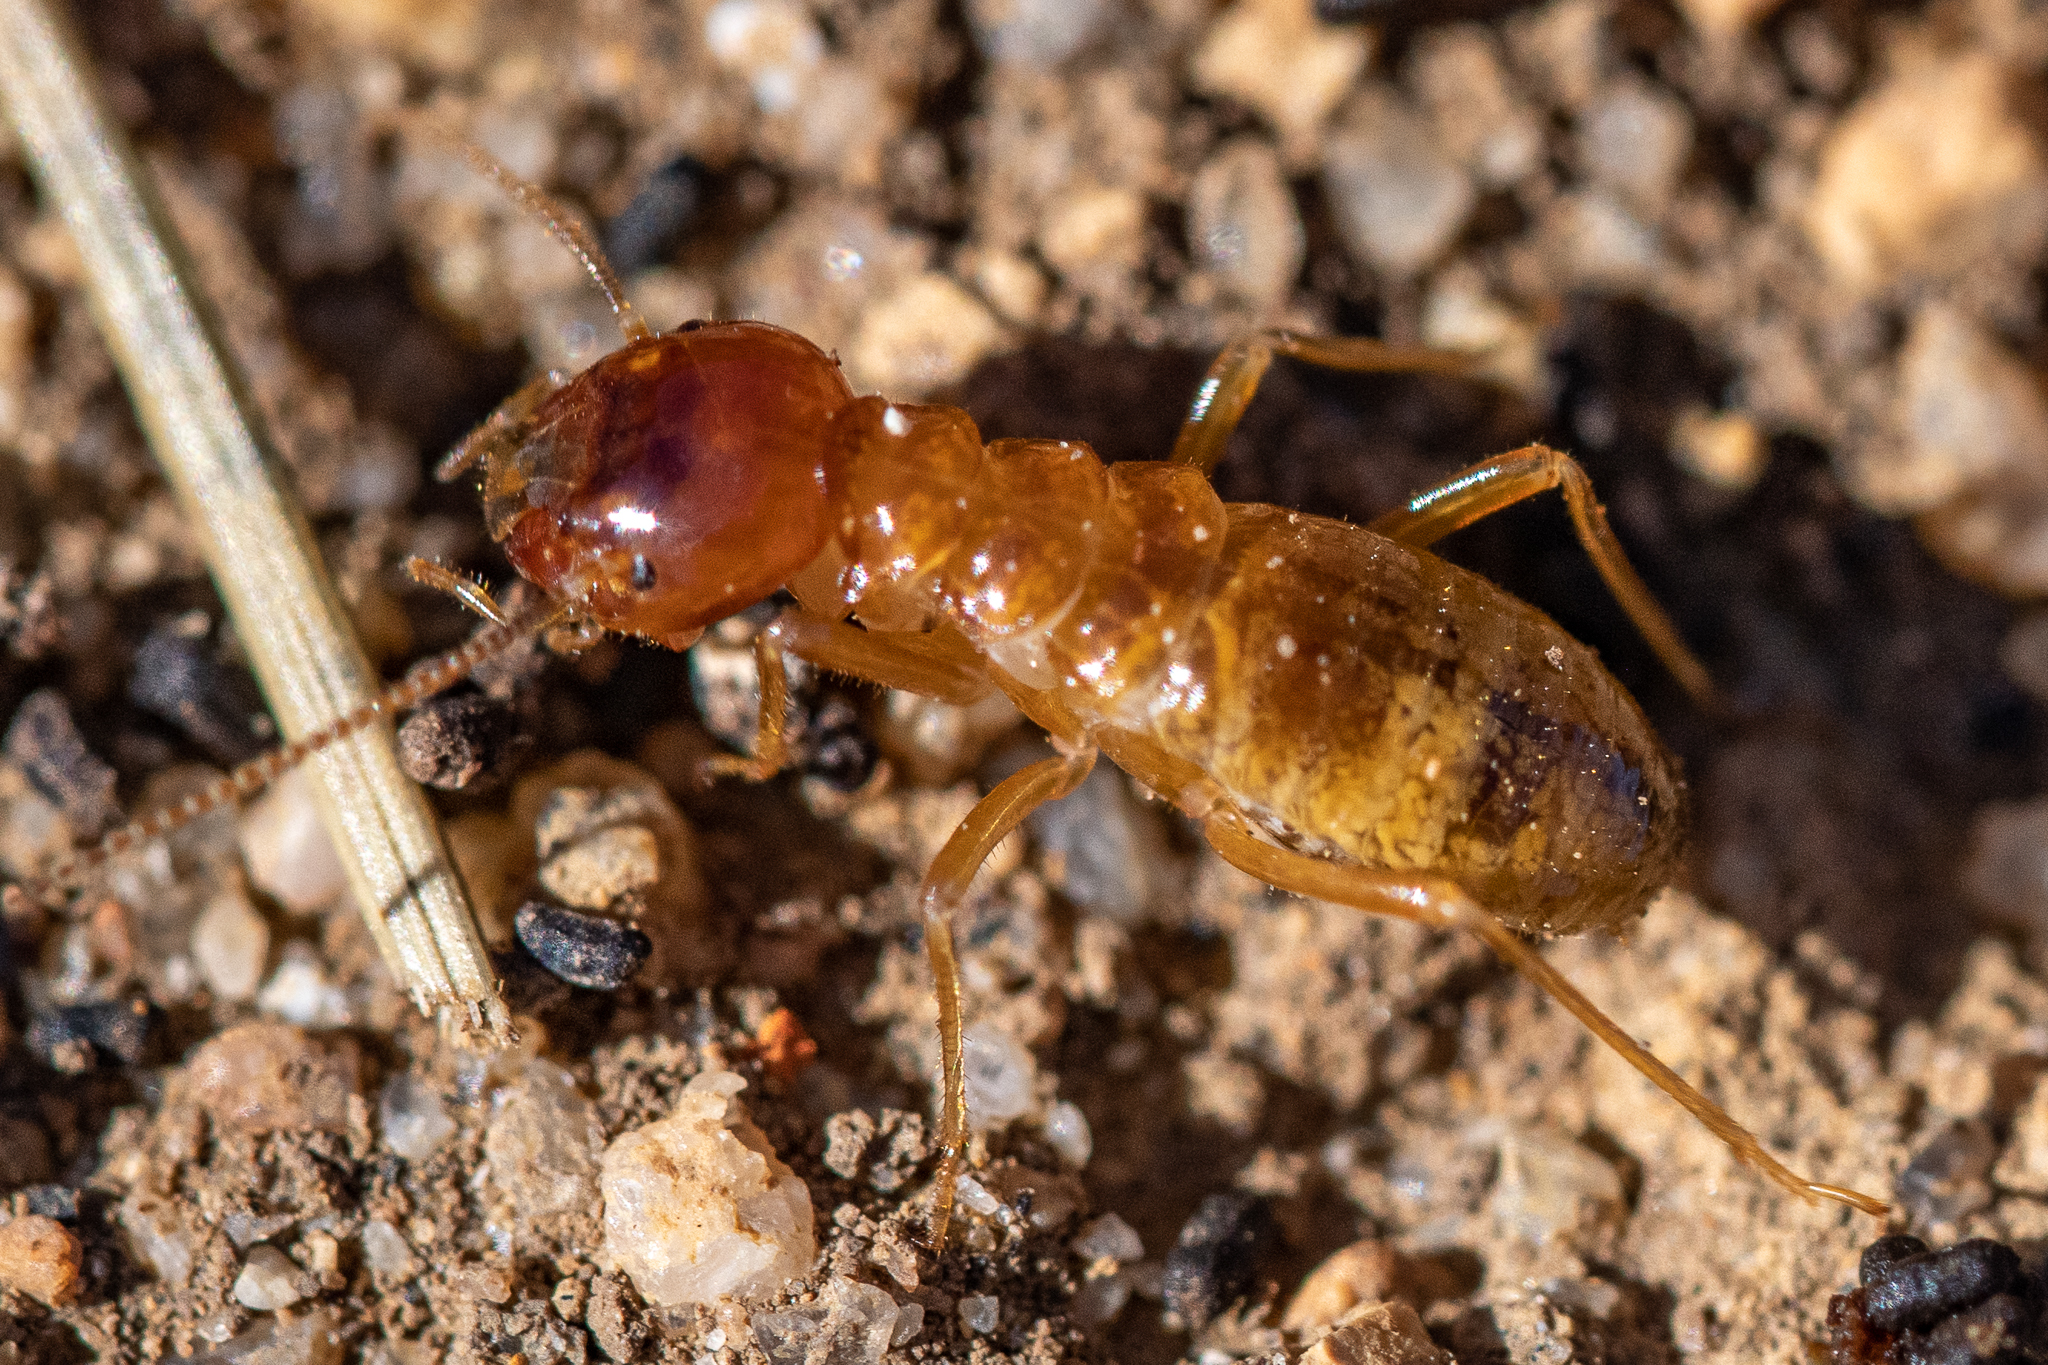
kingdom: Animalia
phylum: Arthropoda
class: Insecta
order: Blattodea
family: Hodotermitidae
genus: Microhodotermes
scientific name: Microhodotermes viator
